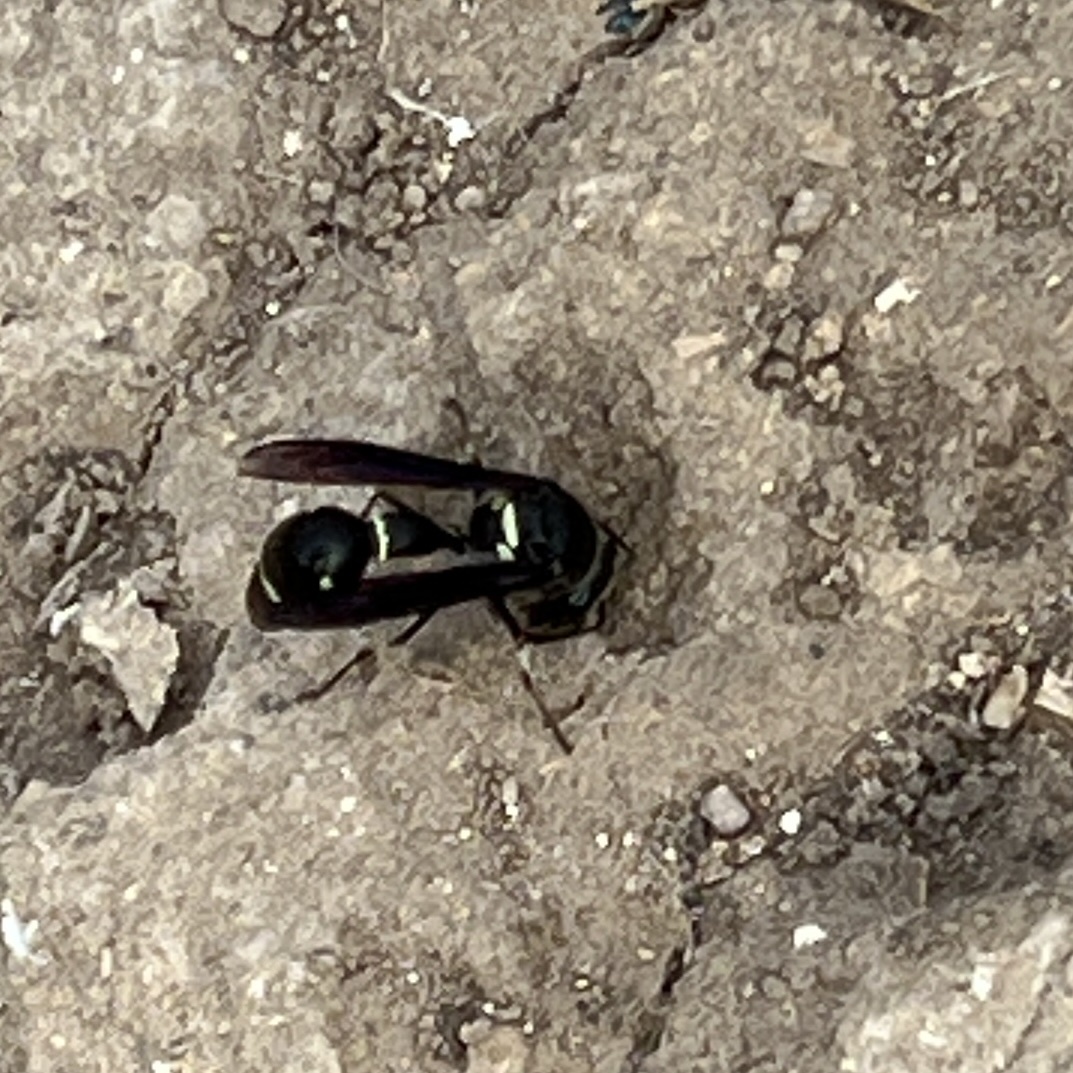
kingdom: Animalia
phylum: Arthropoda
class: Insecta
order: Hymenoptera
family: Vespidae
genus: Eumenes
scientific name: Eumenes fraternus
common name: Fraternal potter wasp
